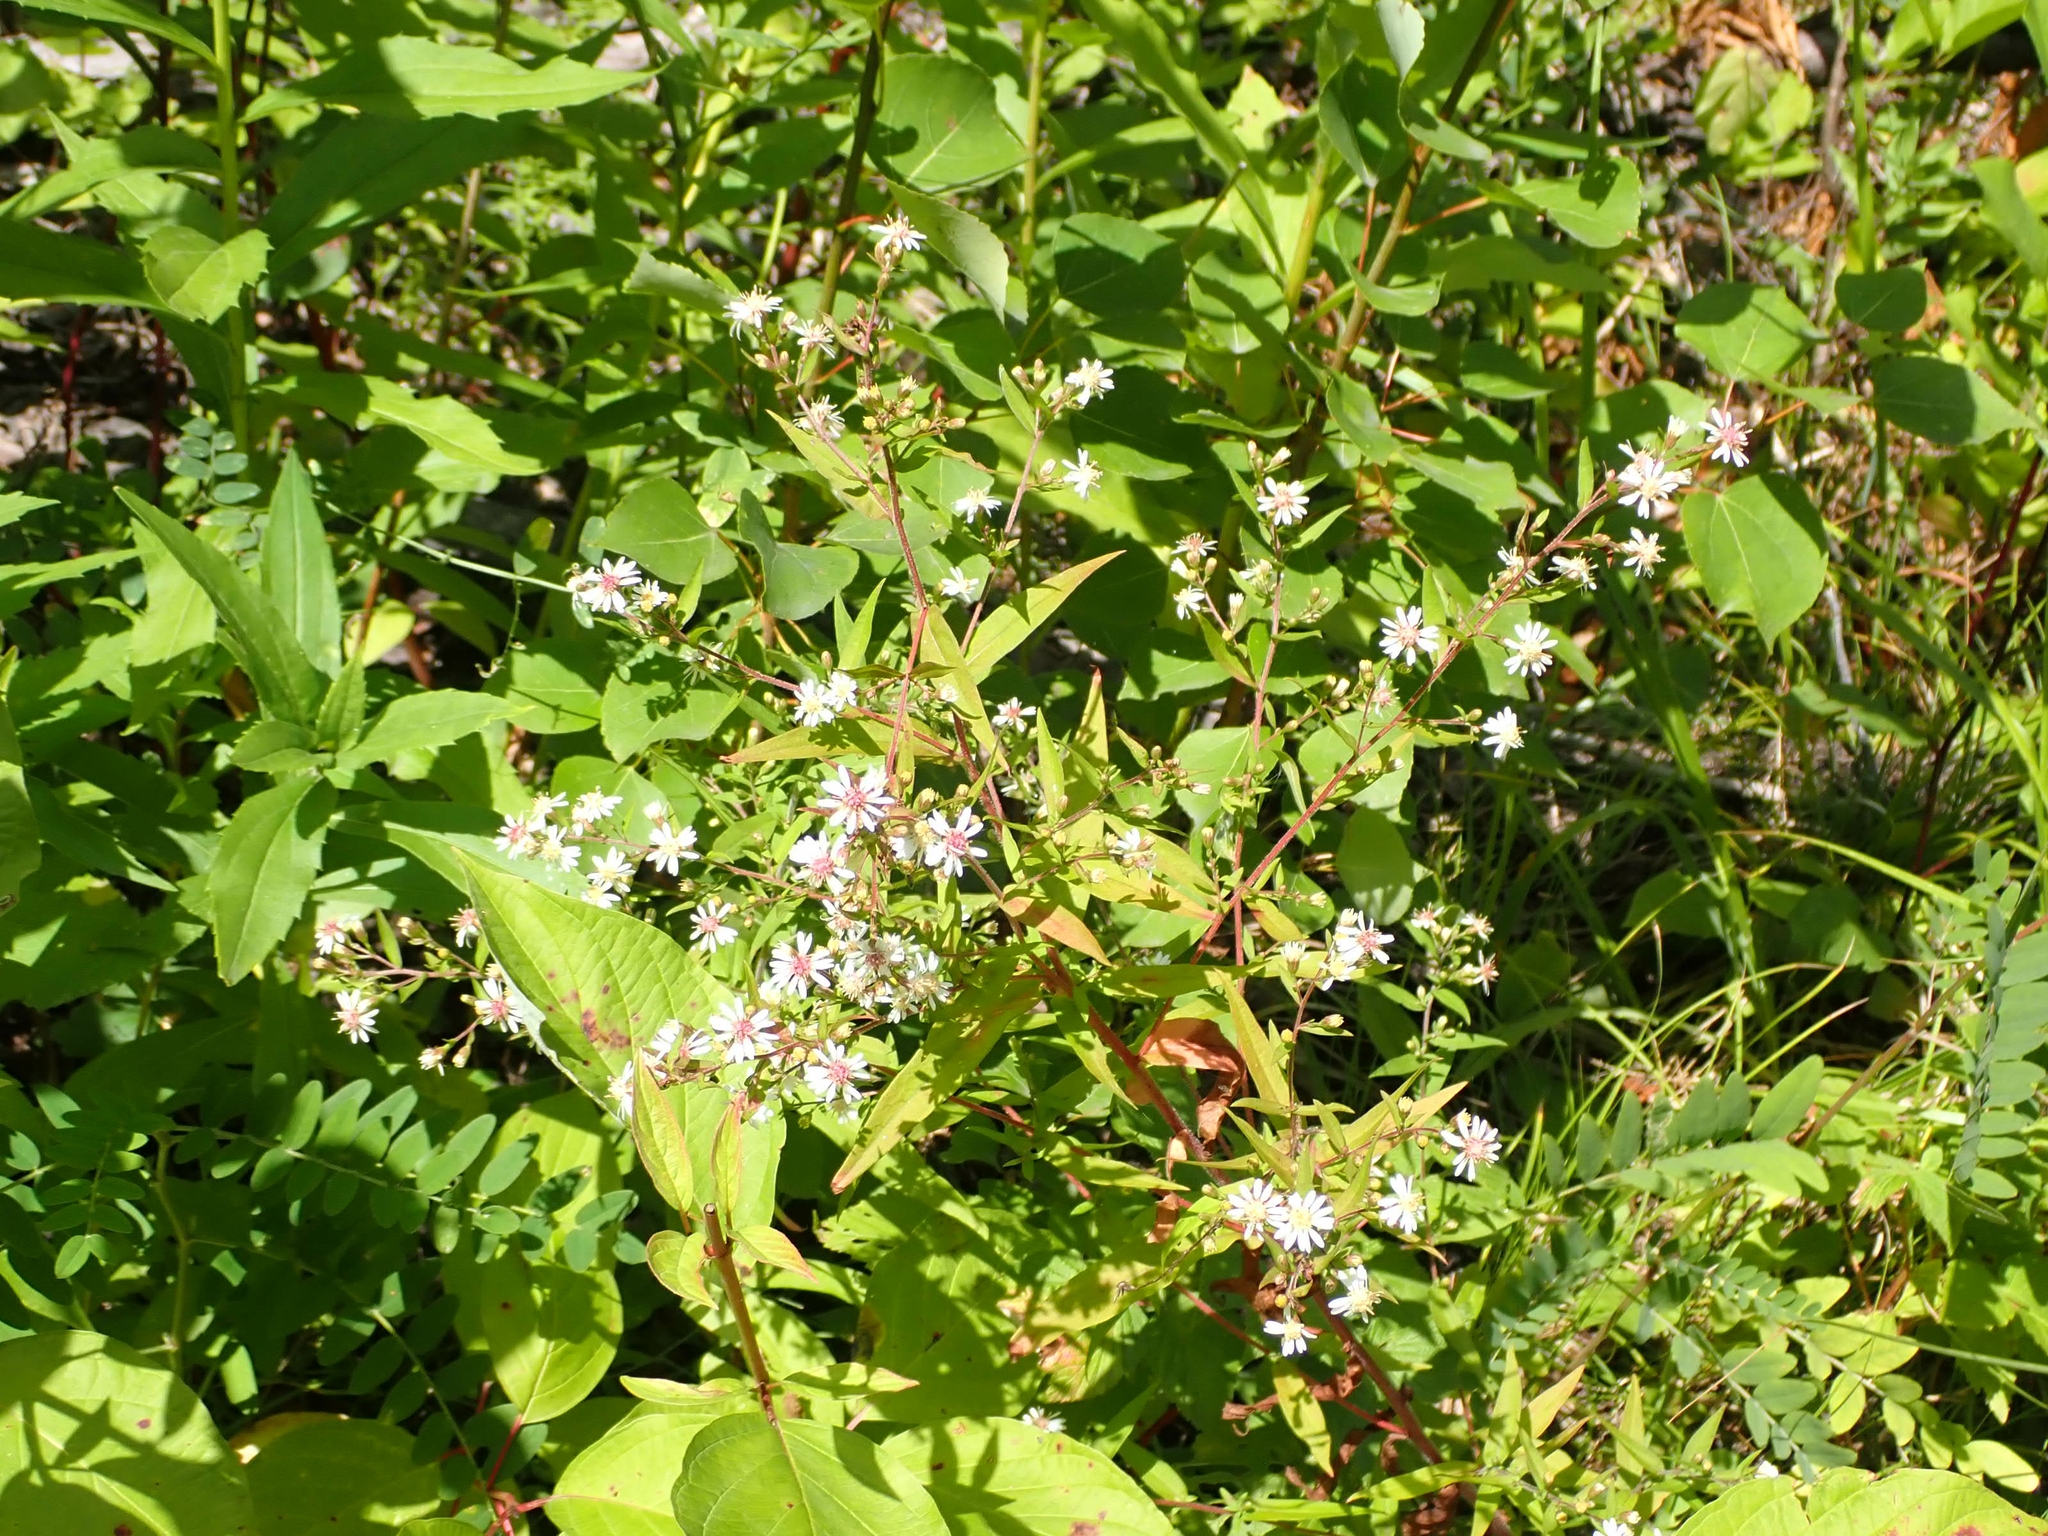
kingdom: Plantae
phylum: Tracheophyta
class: Magnoliopsida
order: Asterales
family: Asteraceae
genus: Symphyotrichum
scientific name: Symphyotrichum lateriflorum
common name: Calico aster
